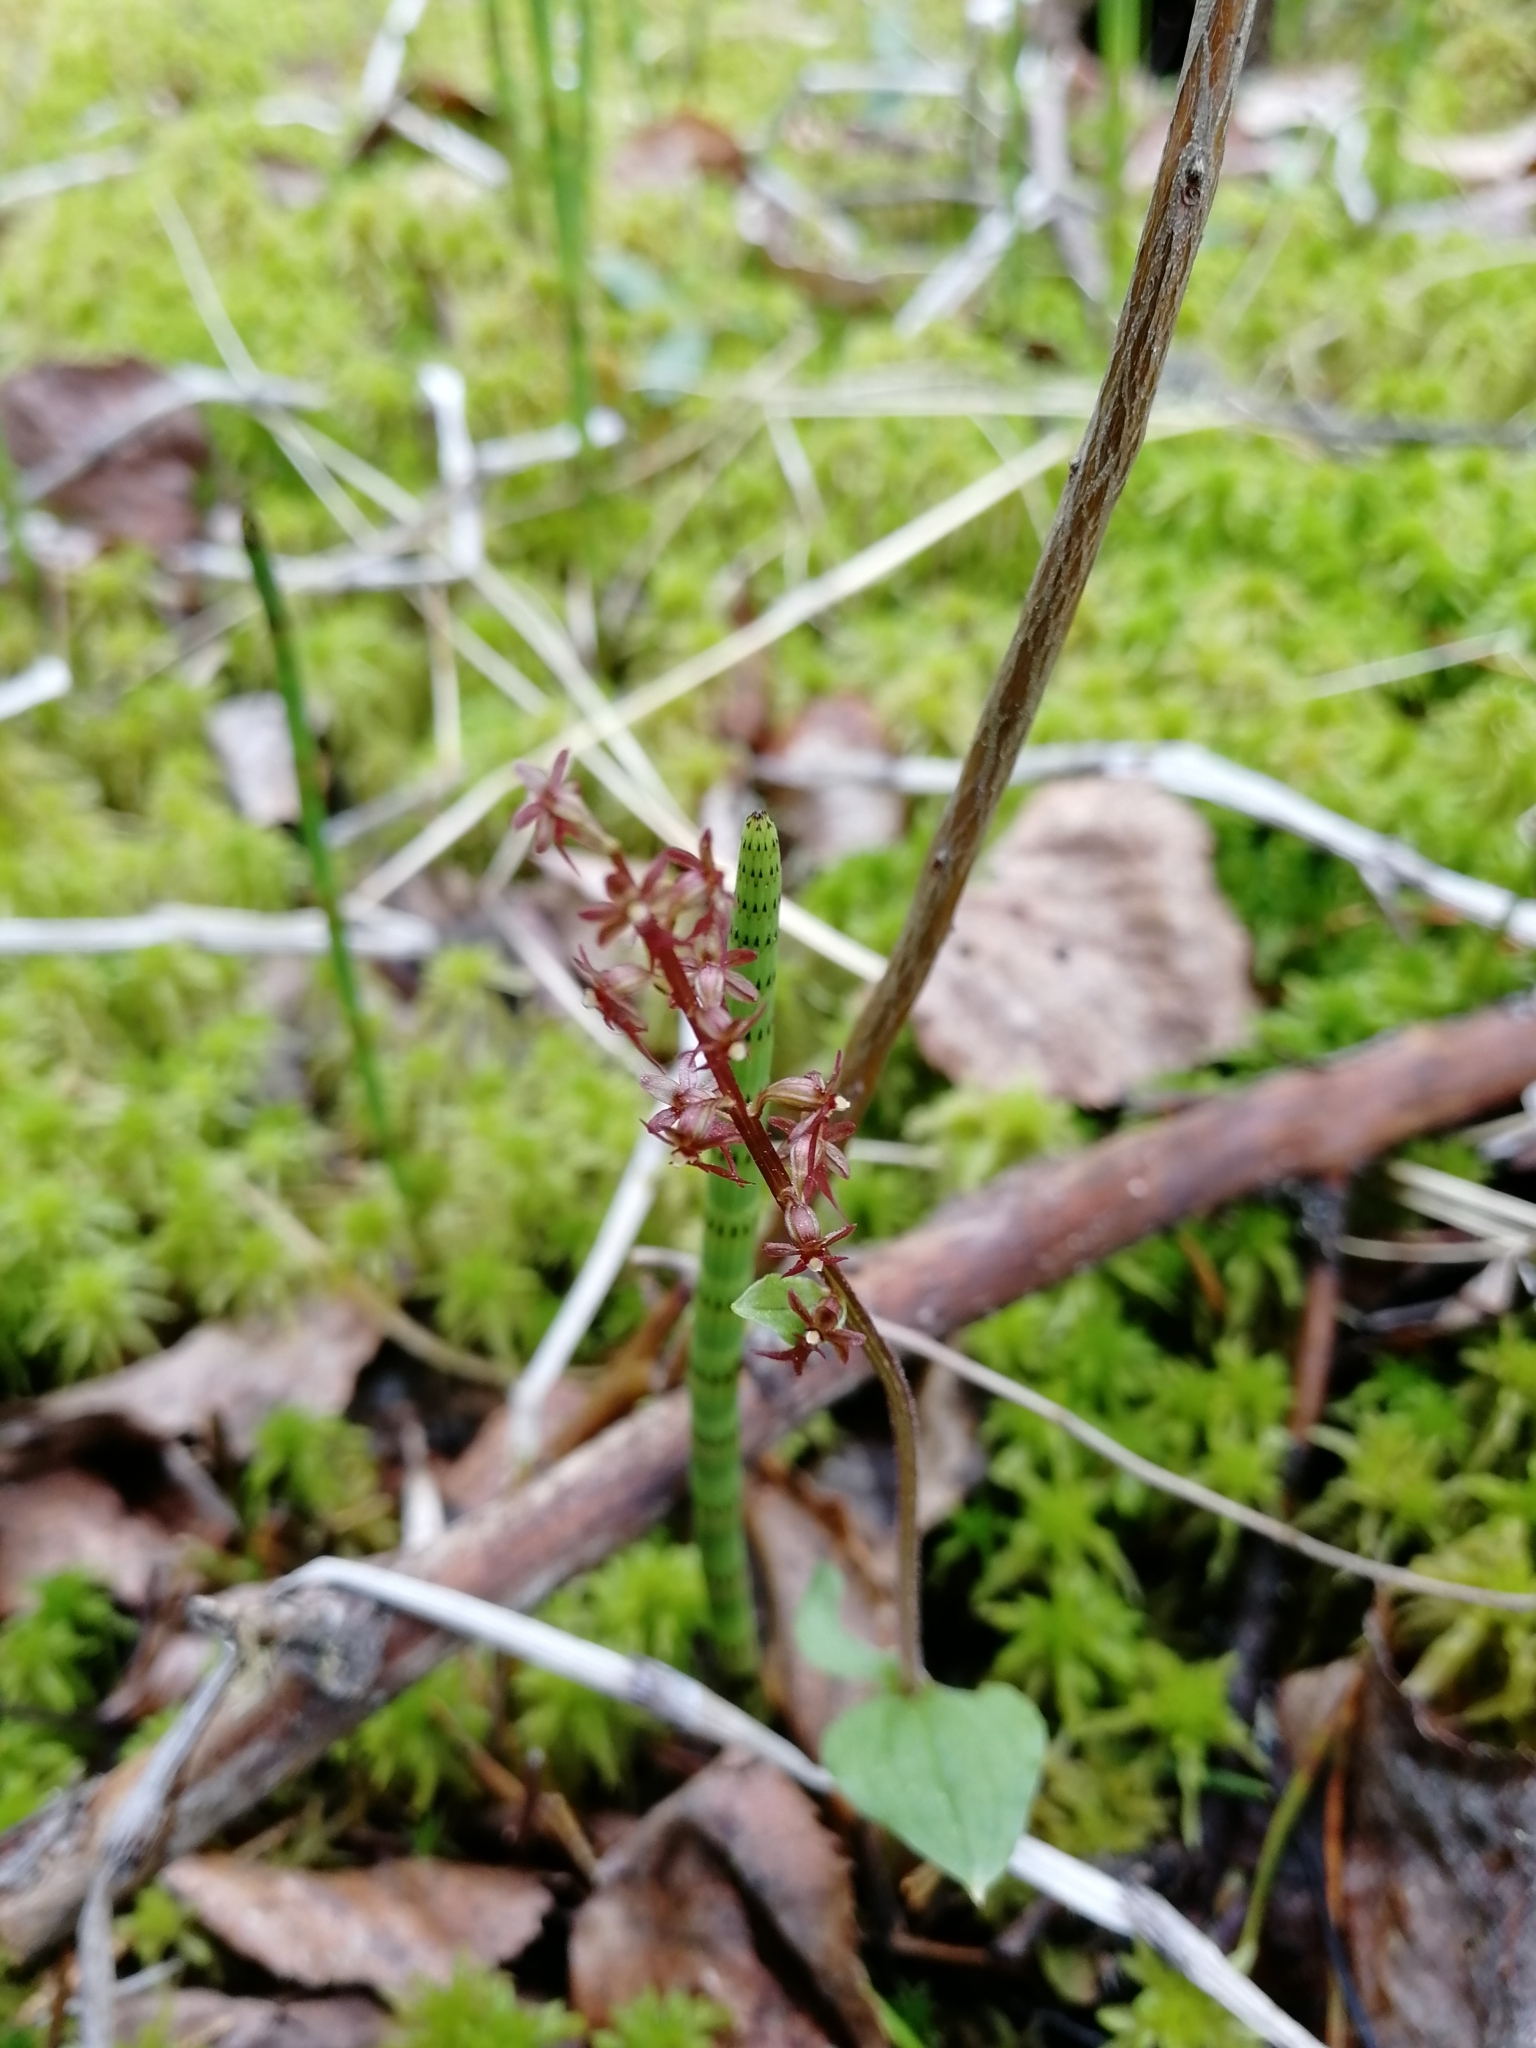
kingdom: Plantae
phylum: Tracheophyta
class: Liliopsida
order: Asparagales
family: Orchidaceae
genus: Neottia
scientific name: Neottia cordata
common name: Lesser twayblade
